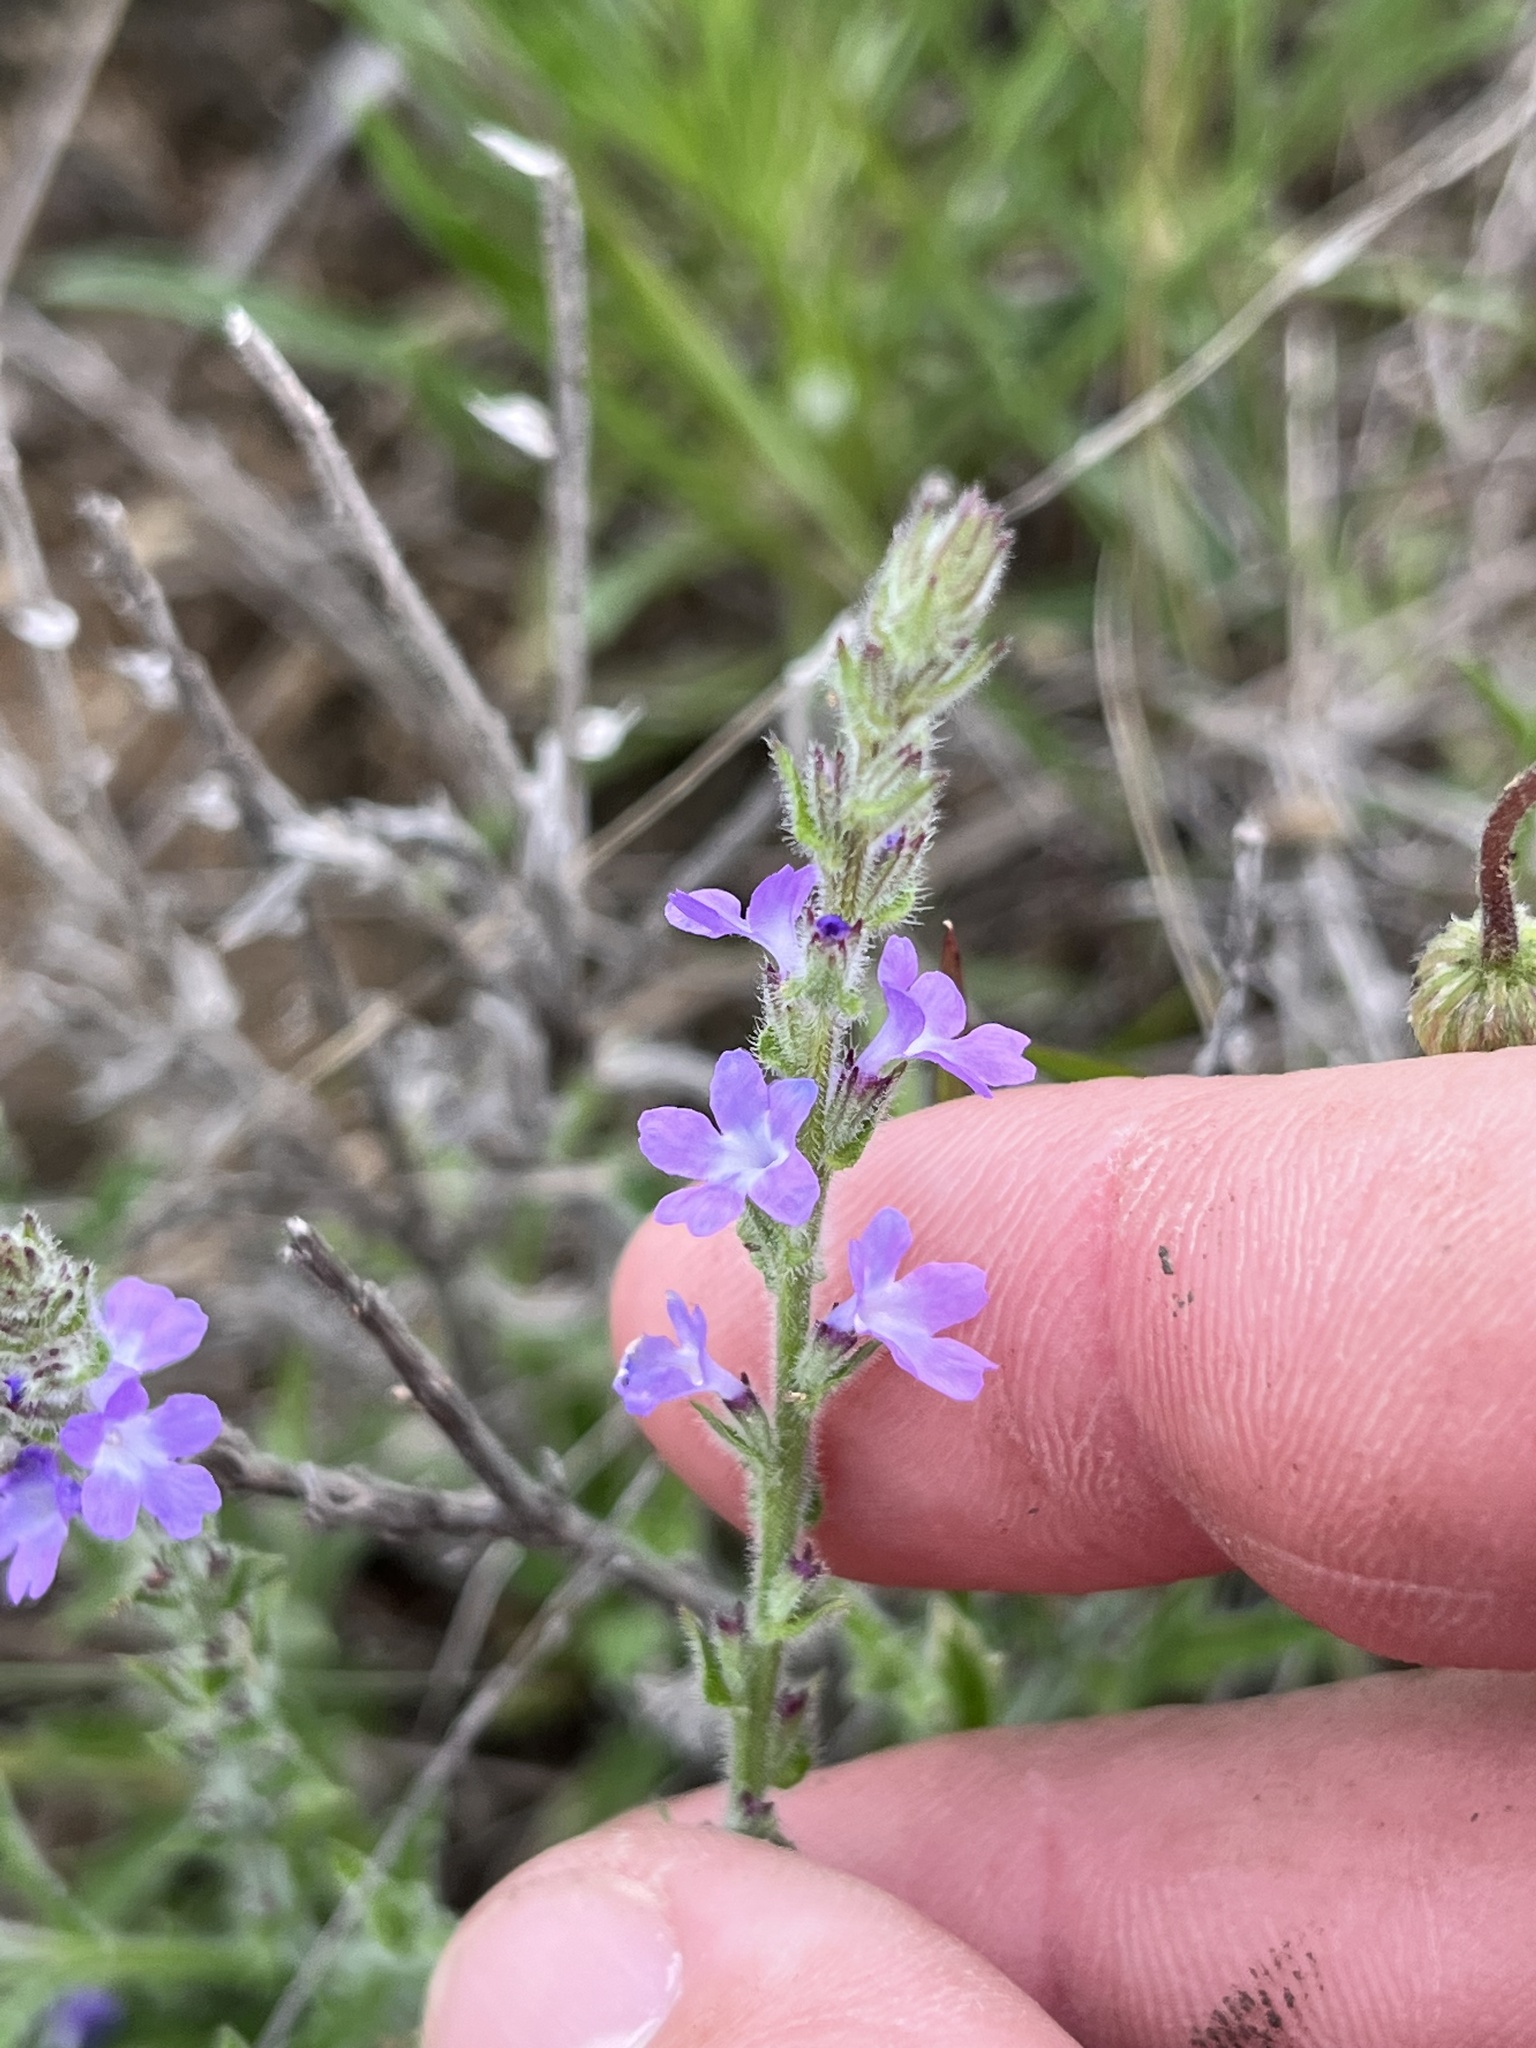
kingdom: Plantae
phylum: Tracheophyta
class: Magnoliopsida
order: Lamiales
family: Verbenaceae
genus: Verbena
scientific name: Verbena canescens
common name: Gray vervain
